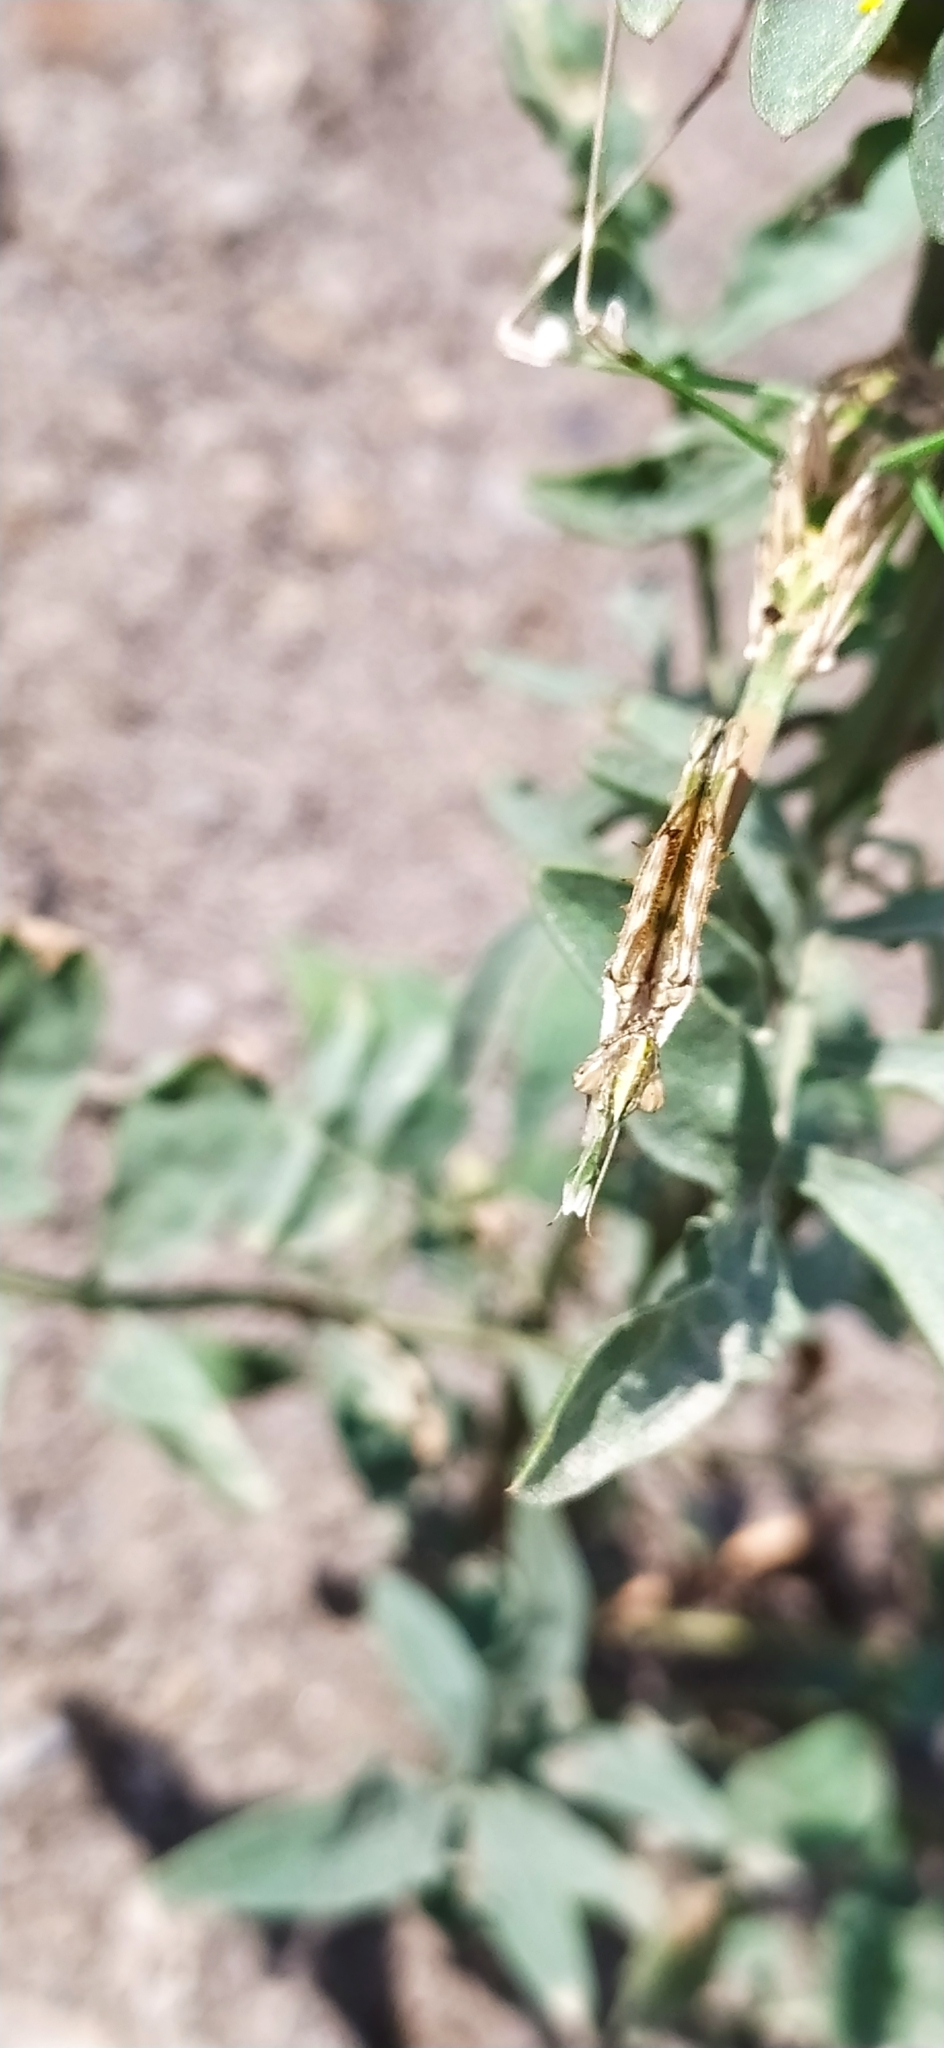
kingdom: Animalia
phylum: Arthropoda
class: Insecta
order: Mantodea
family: Empusidae
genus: Empusa
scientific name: Empusa fasciata
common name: Devil's mare
